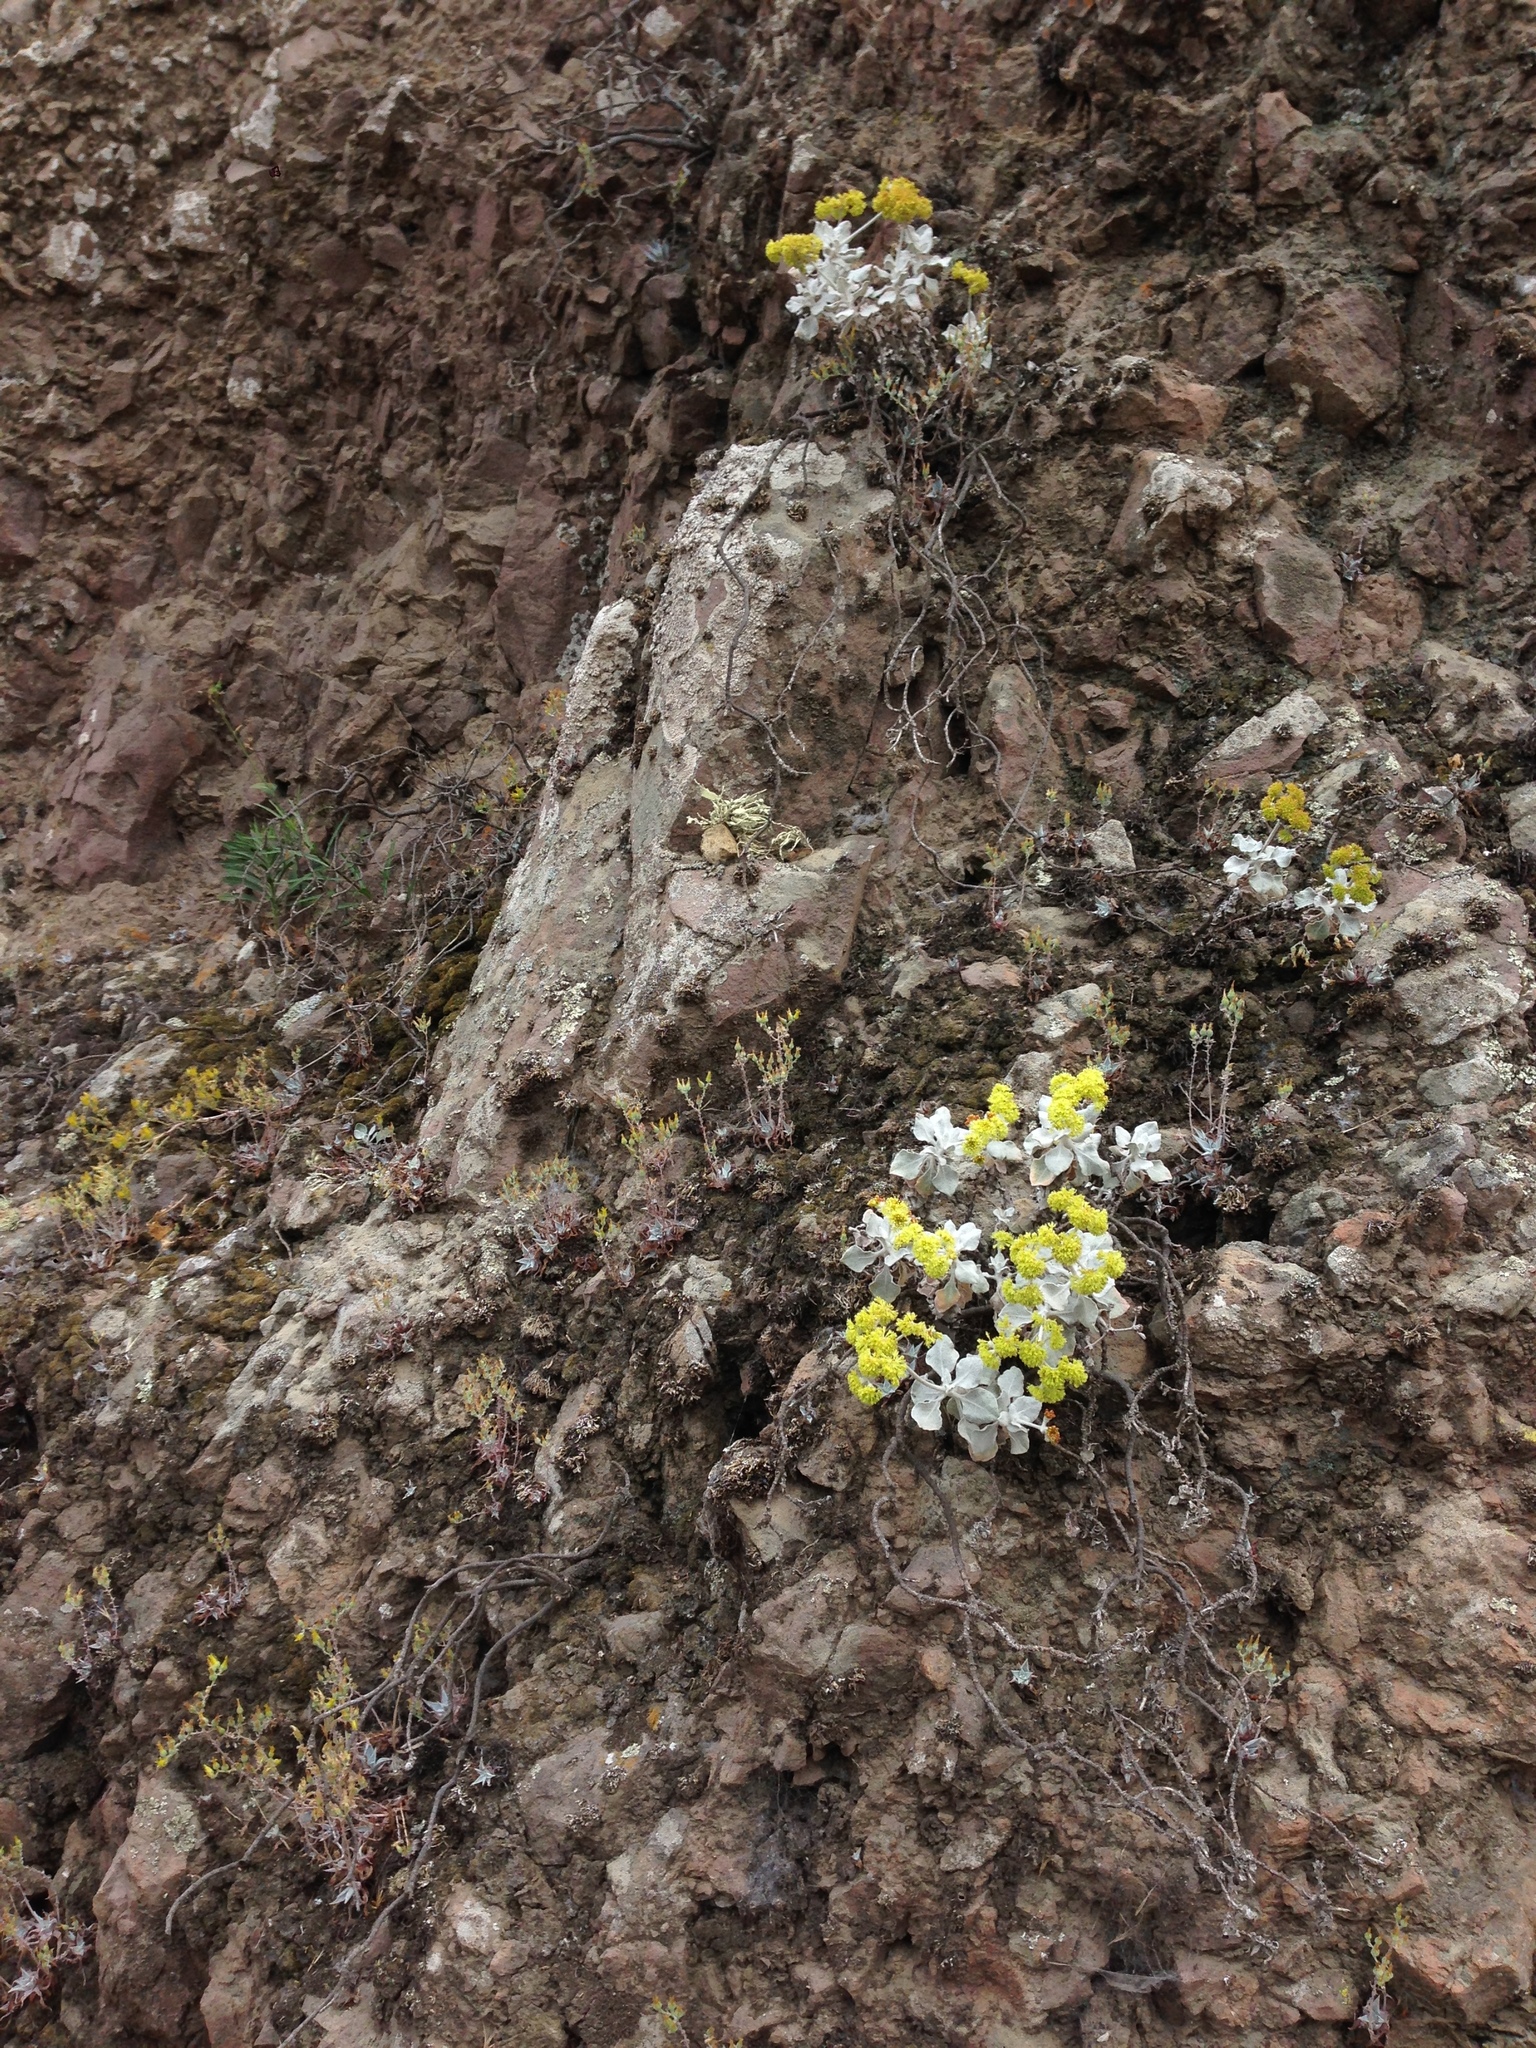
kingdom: Plantae
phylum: Tracheophyta
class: Magnoliopsida
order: Caryophyllales
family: Polygonaceae
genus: Eriogonum
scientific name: Eriogonum crocatum
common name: Saffron wild buckwheat
